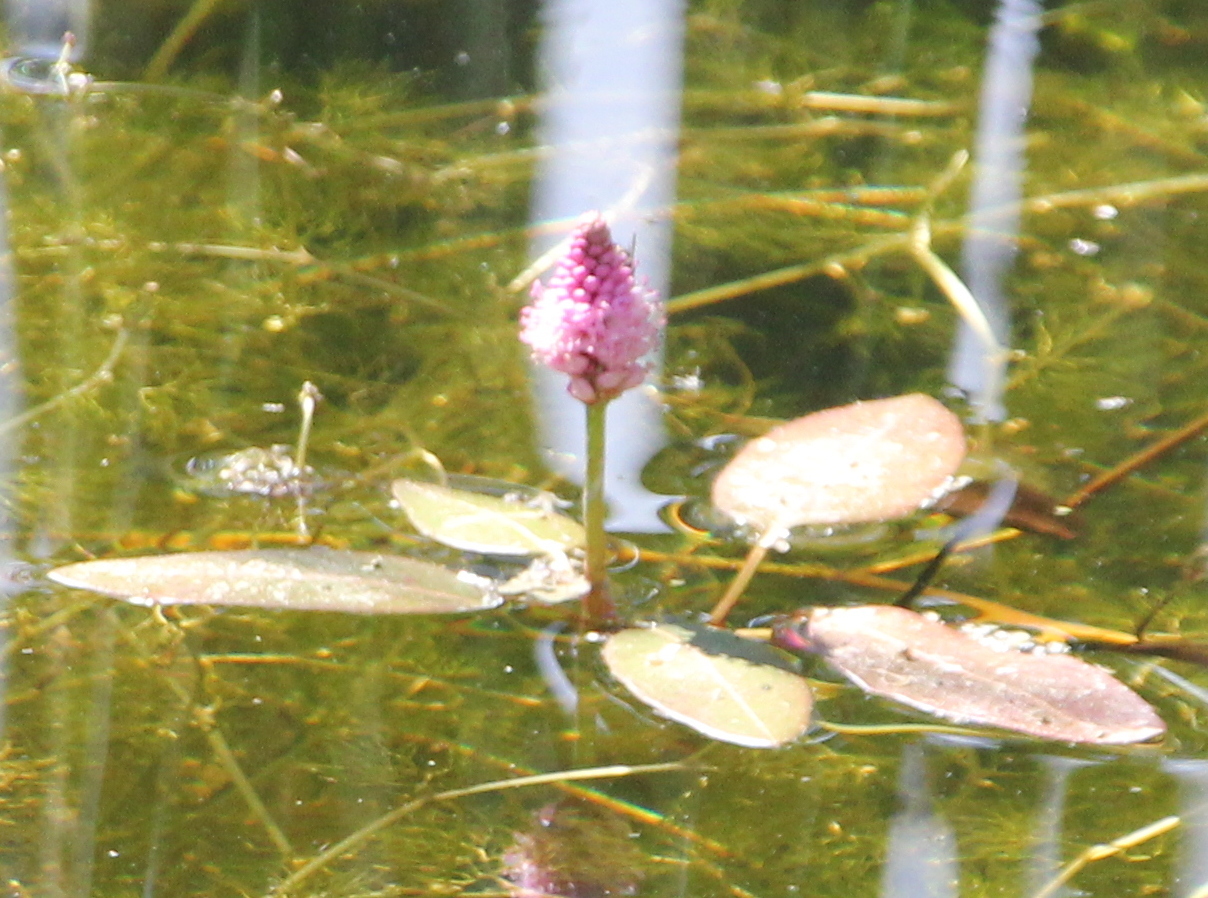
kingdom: Plantae
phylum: Tracheophyta
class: Magnoliopsida
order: Caryophyllales
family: Polygonaceae
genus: Persicaria
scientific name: Persicaria amphibia
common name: Amphibious bistort
